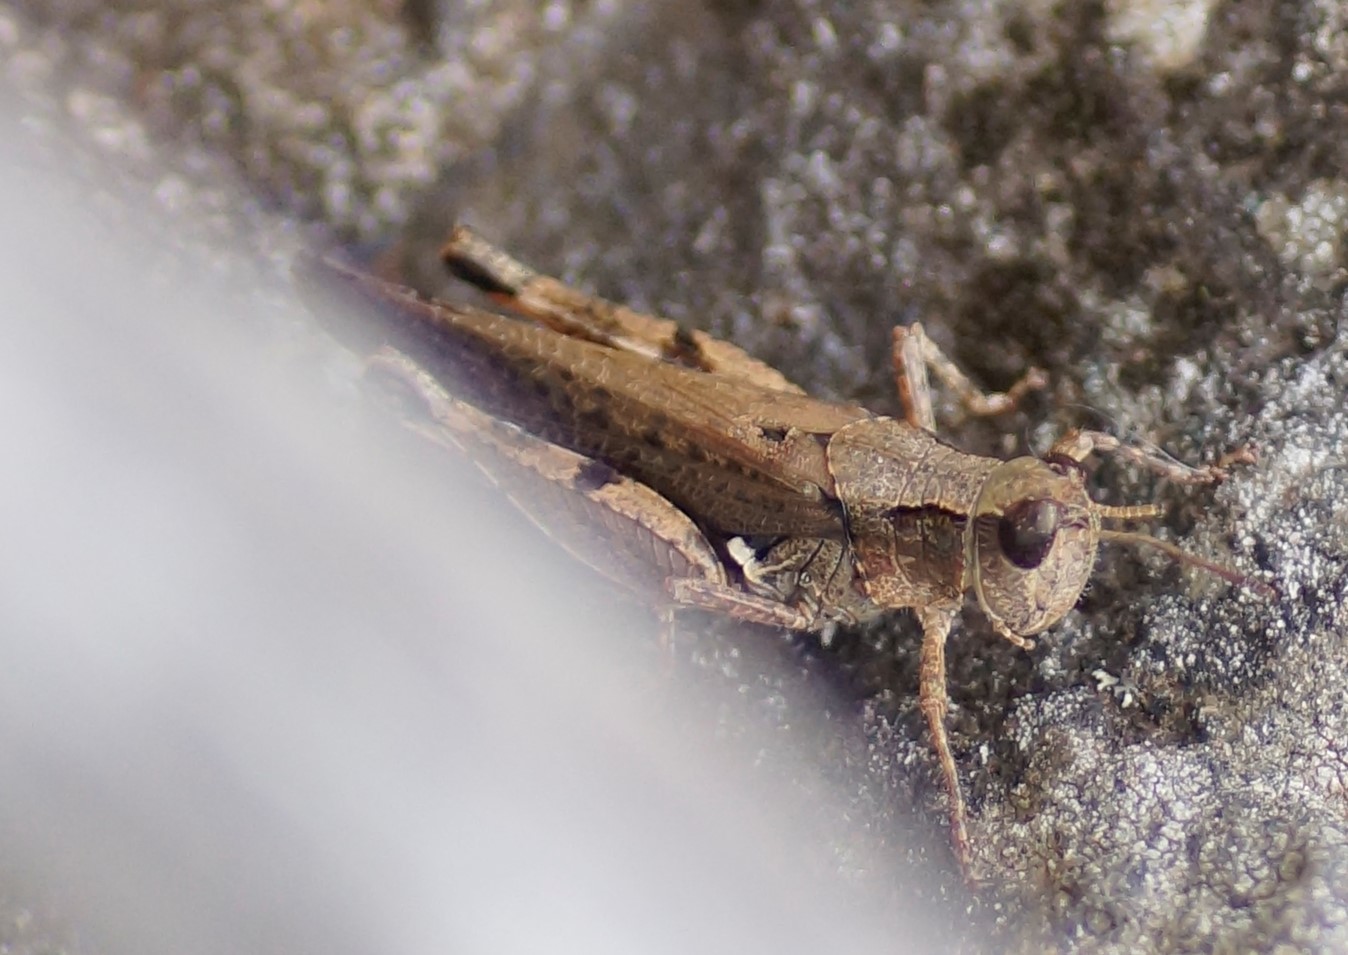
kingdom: Animalia
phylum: Arthropoda
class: Insecta
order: Orthoptera
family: Acrididae
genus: Phaulacridium
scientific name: Phaulacridium vittatum
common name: Wingless grasshopper
